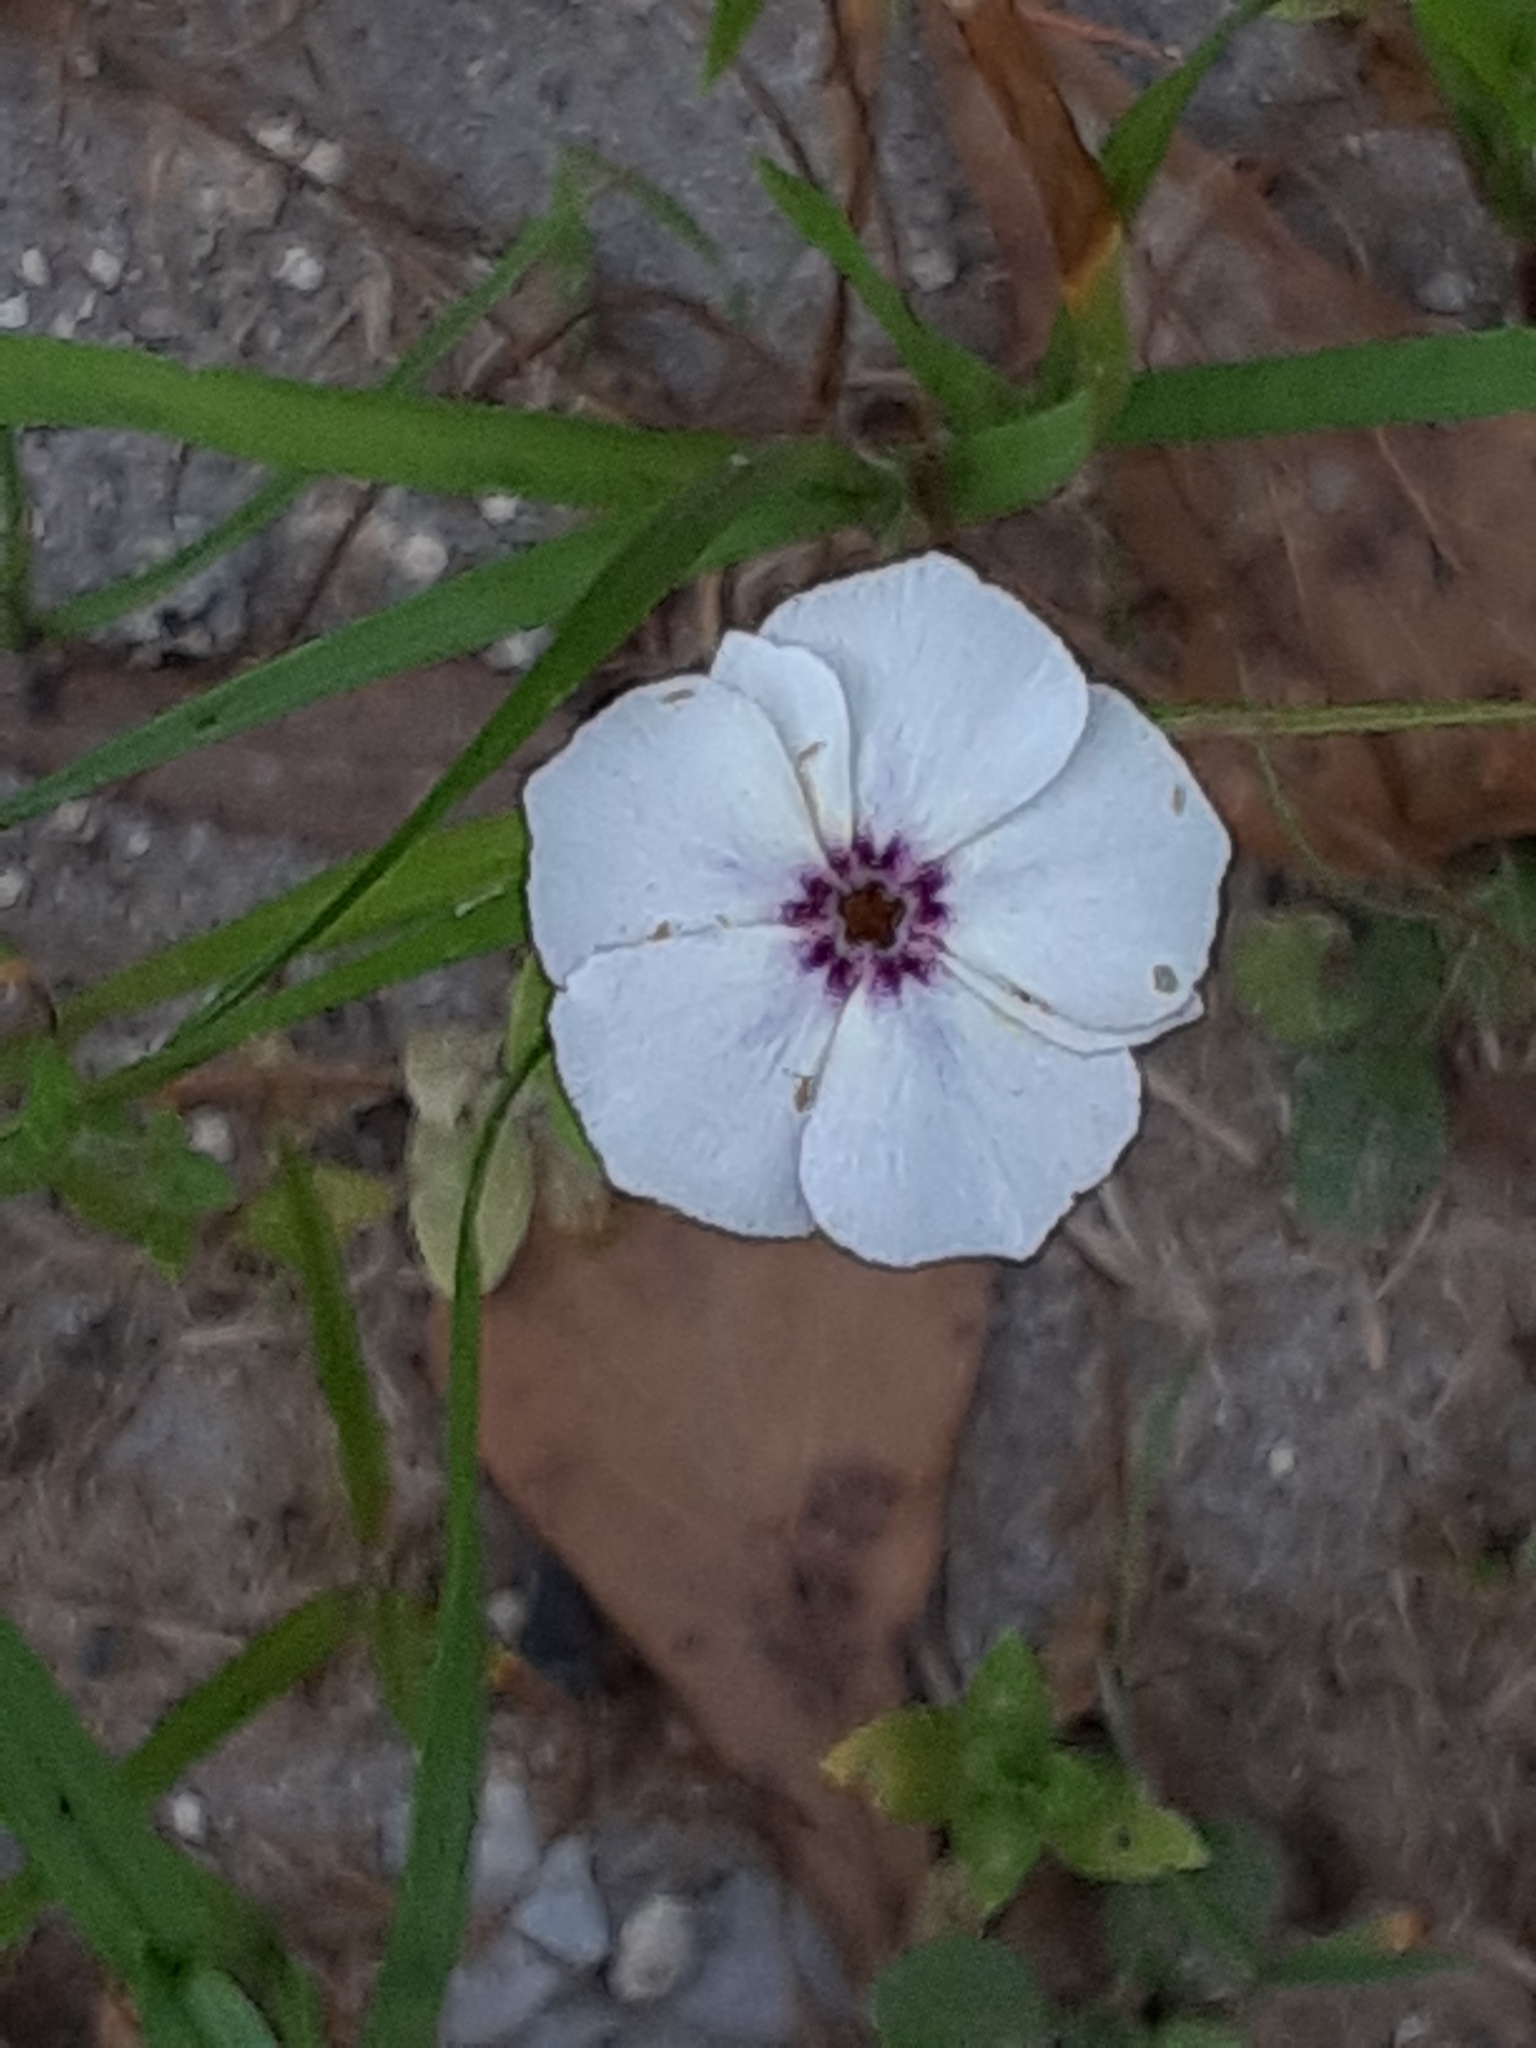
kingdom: Plantae
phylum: Tracheophyta
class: Magnoliopsida
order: Ericales
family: Polemoniaceae
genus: Phlox
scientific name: Phlox drummondii
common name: Drummond's phlox
